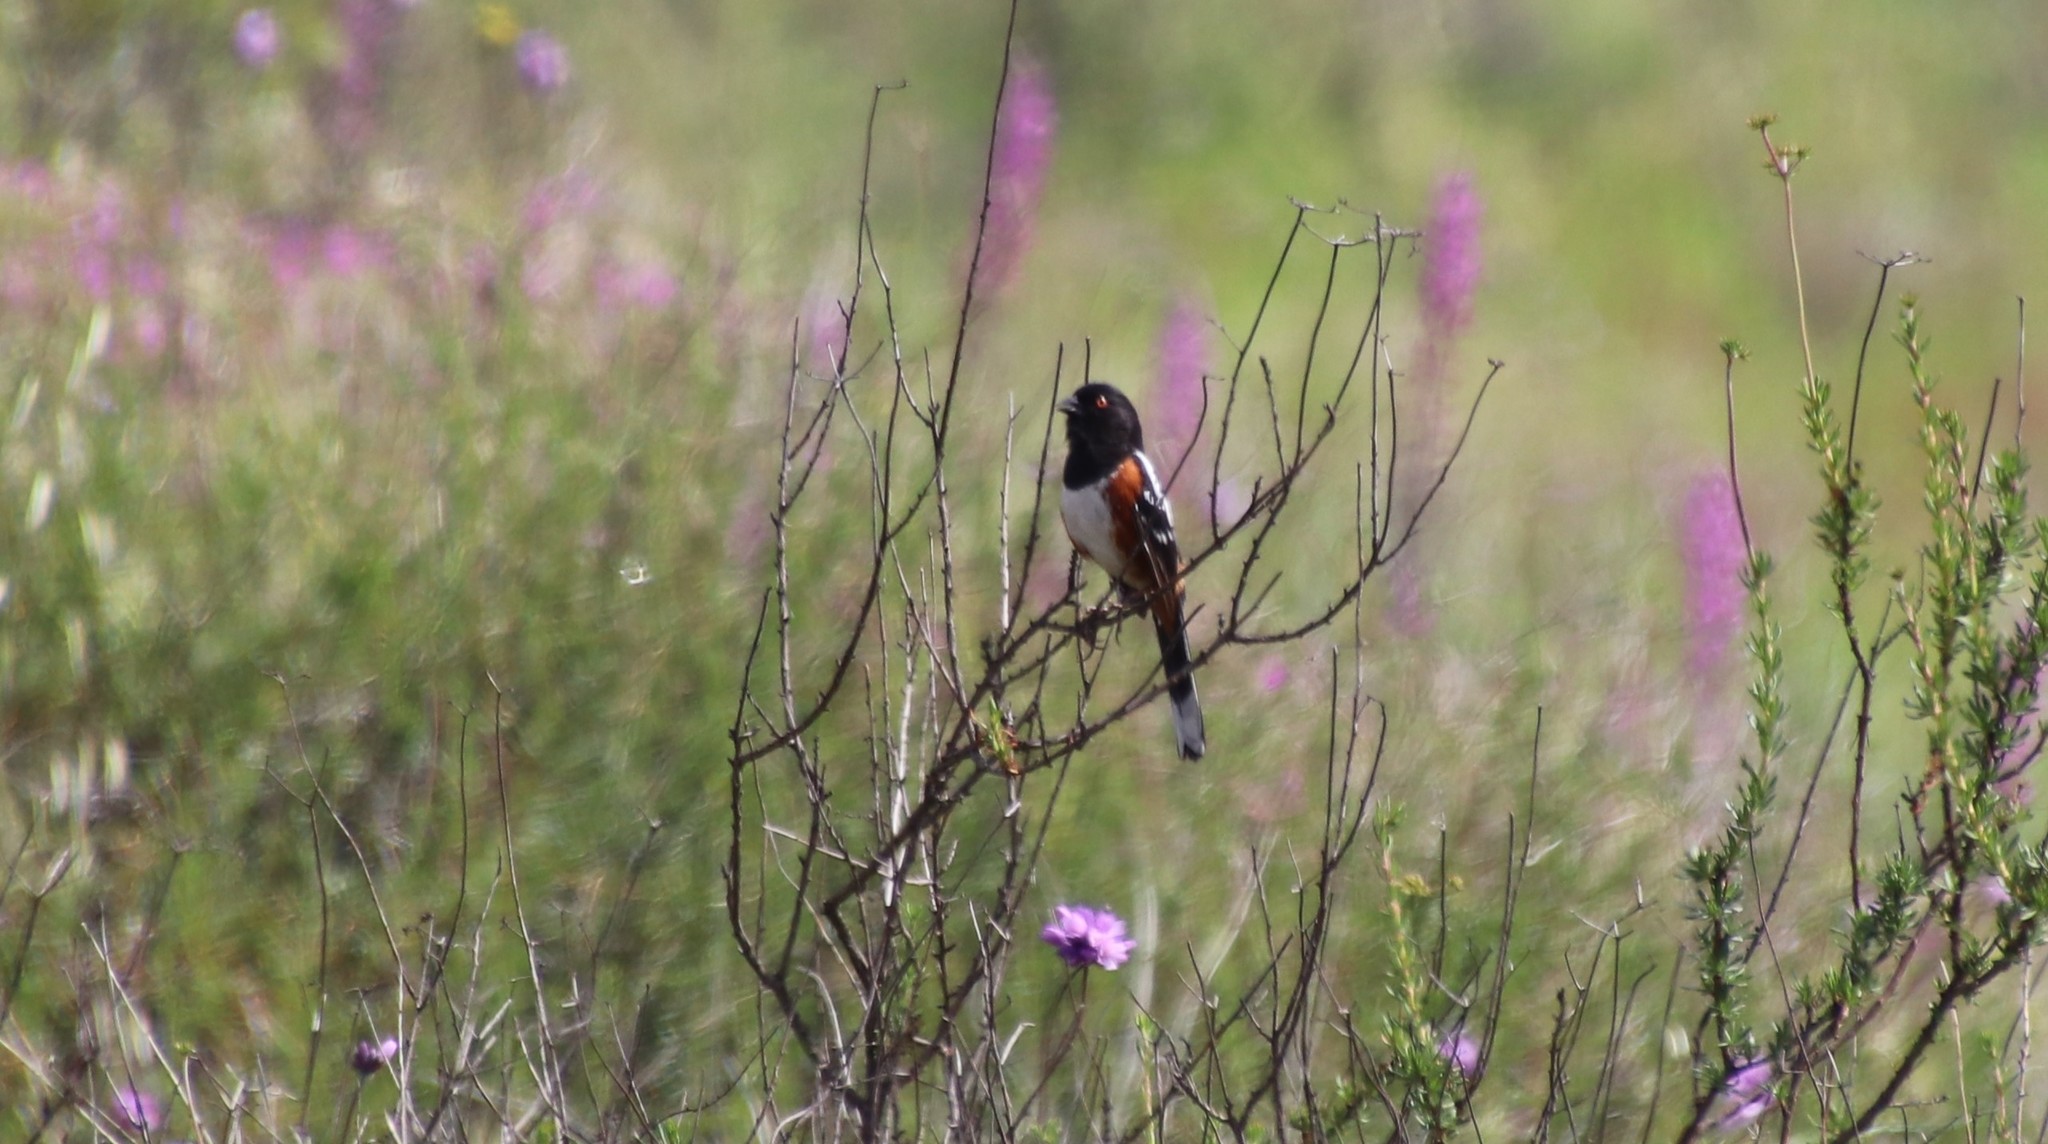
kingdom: Animalia
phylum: Chordata
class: Aves
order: Passeriformes
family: Passerellidae
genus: Pipilo
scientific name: Pipilo maculatus
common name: Spotted towhee
